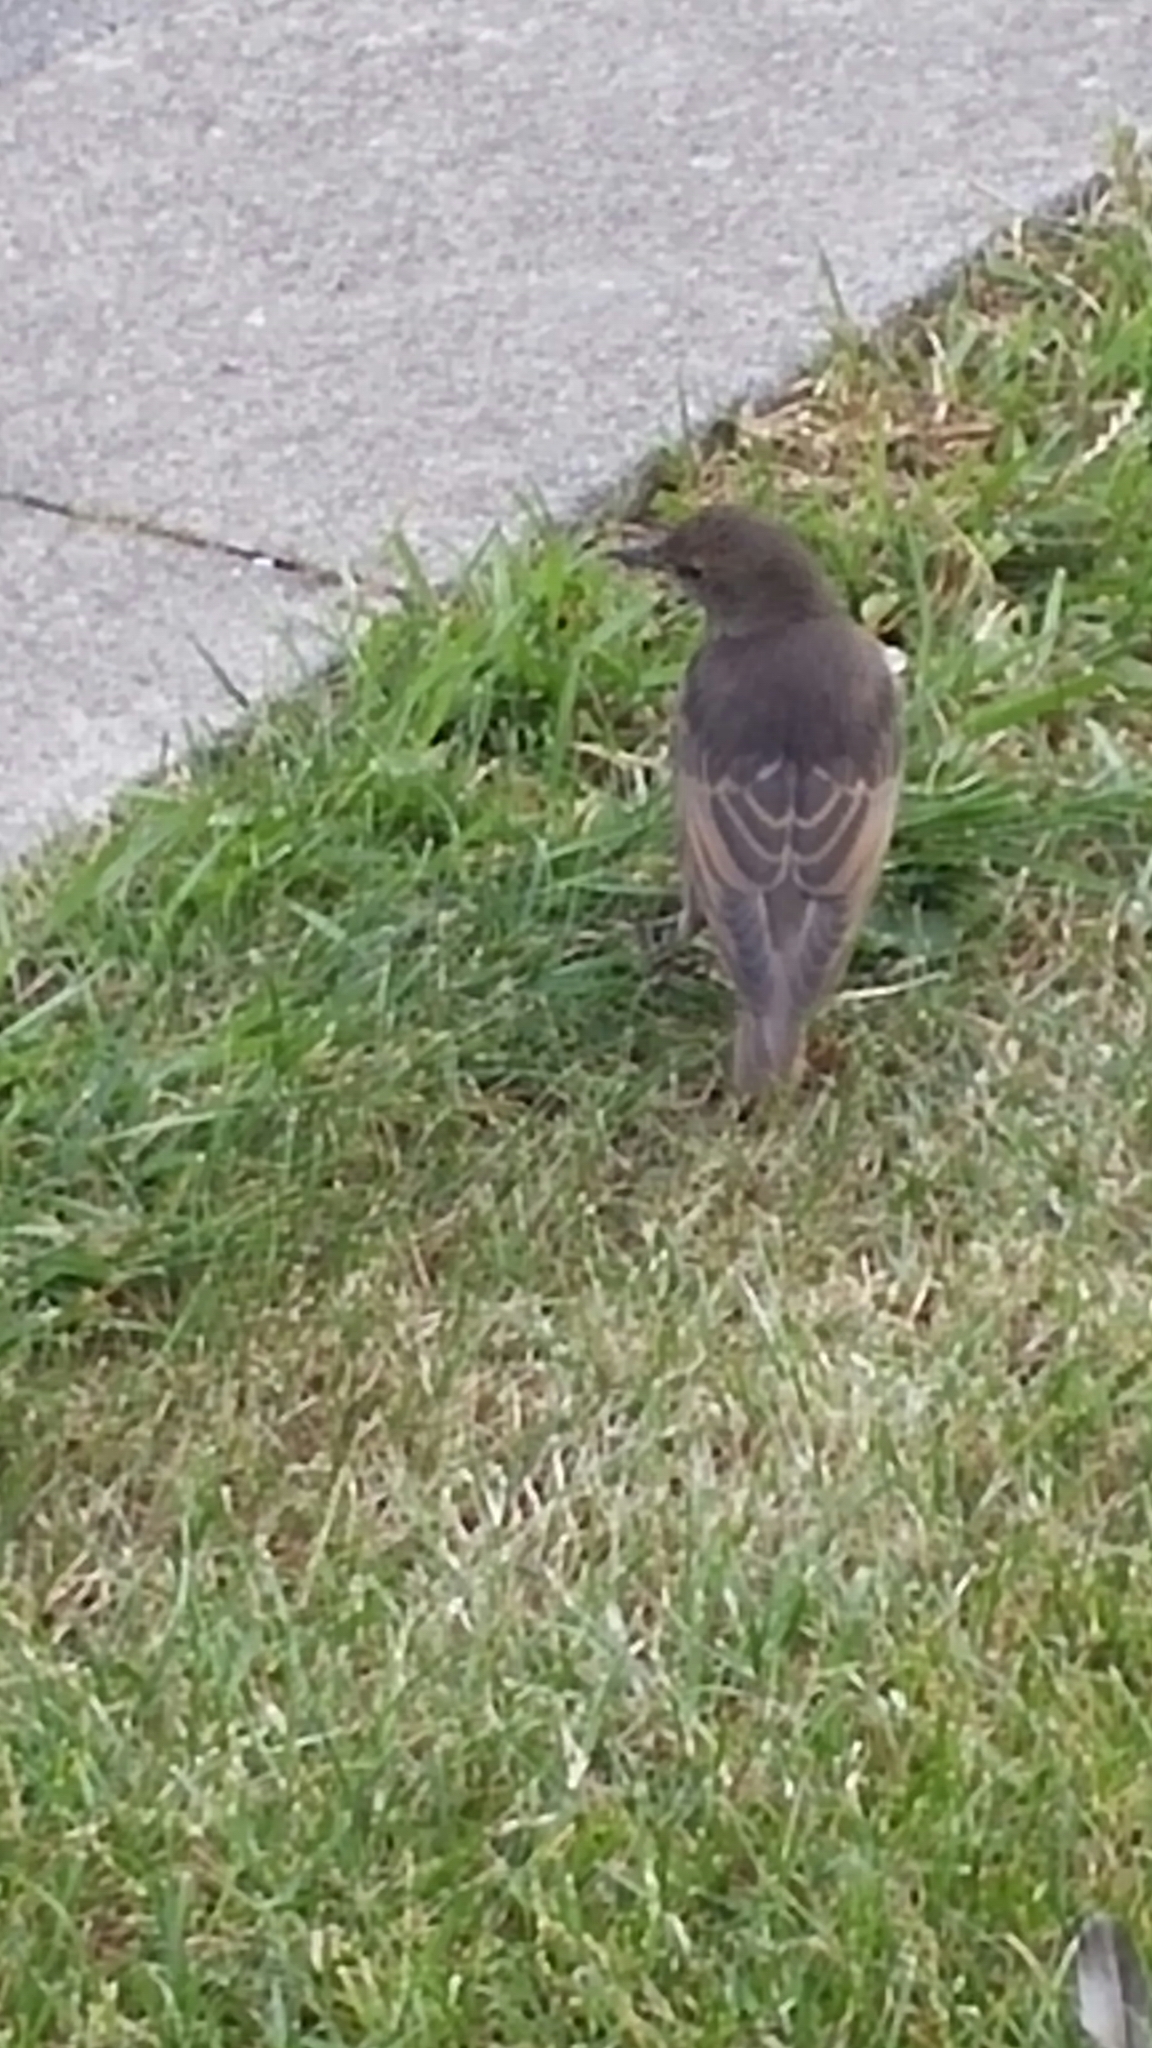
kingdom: Animalia
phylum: Chordata
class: Aves
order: Passeriformes
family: Sturnidae
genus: Sturnus
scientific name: Sturnus vulgaris
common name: Common starling
